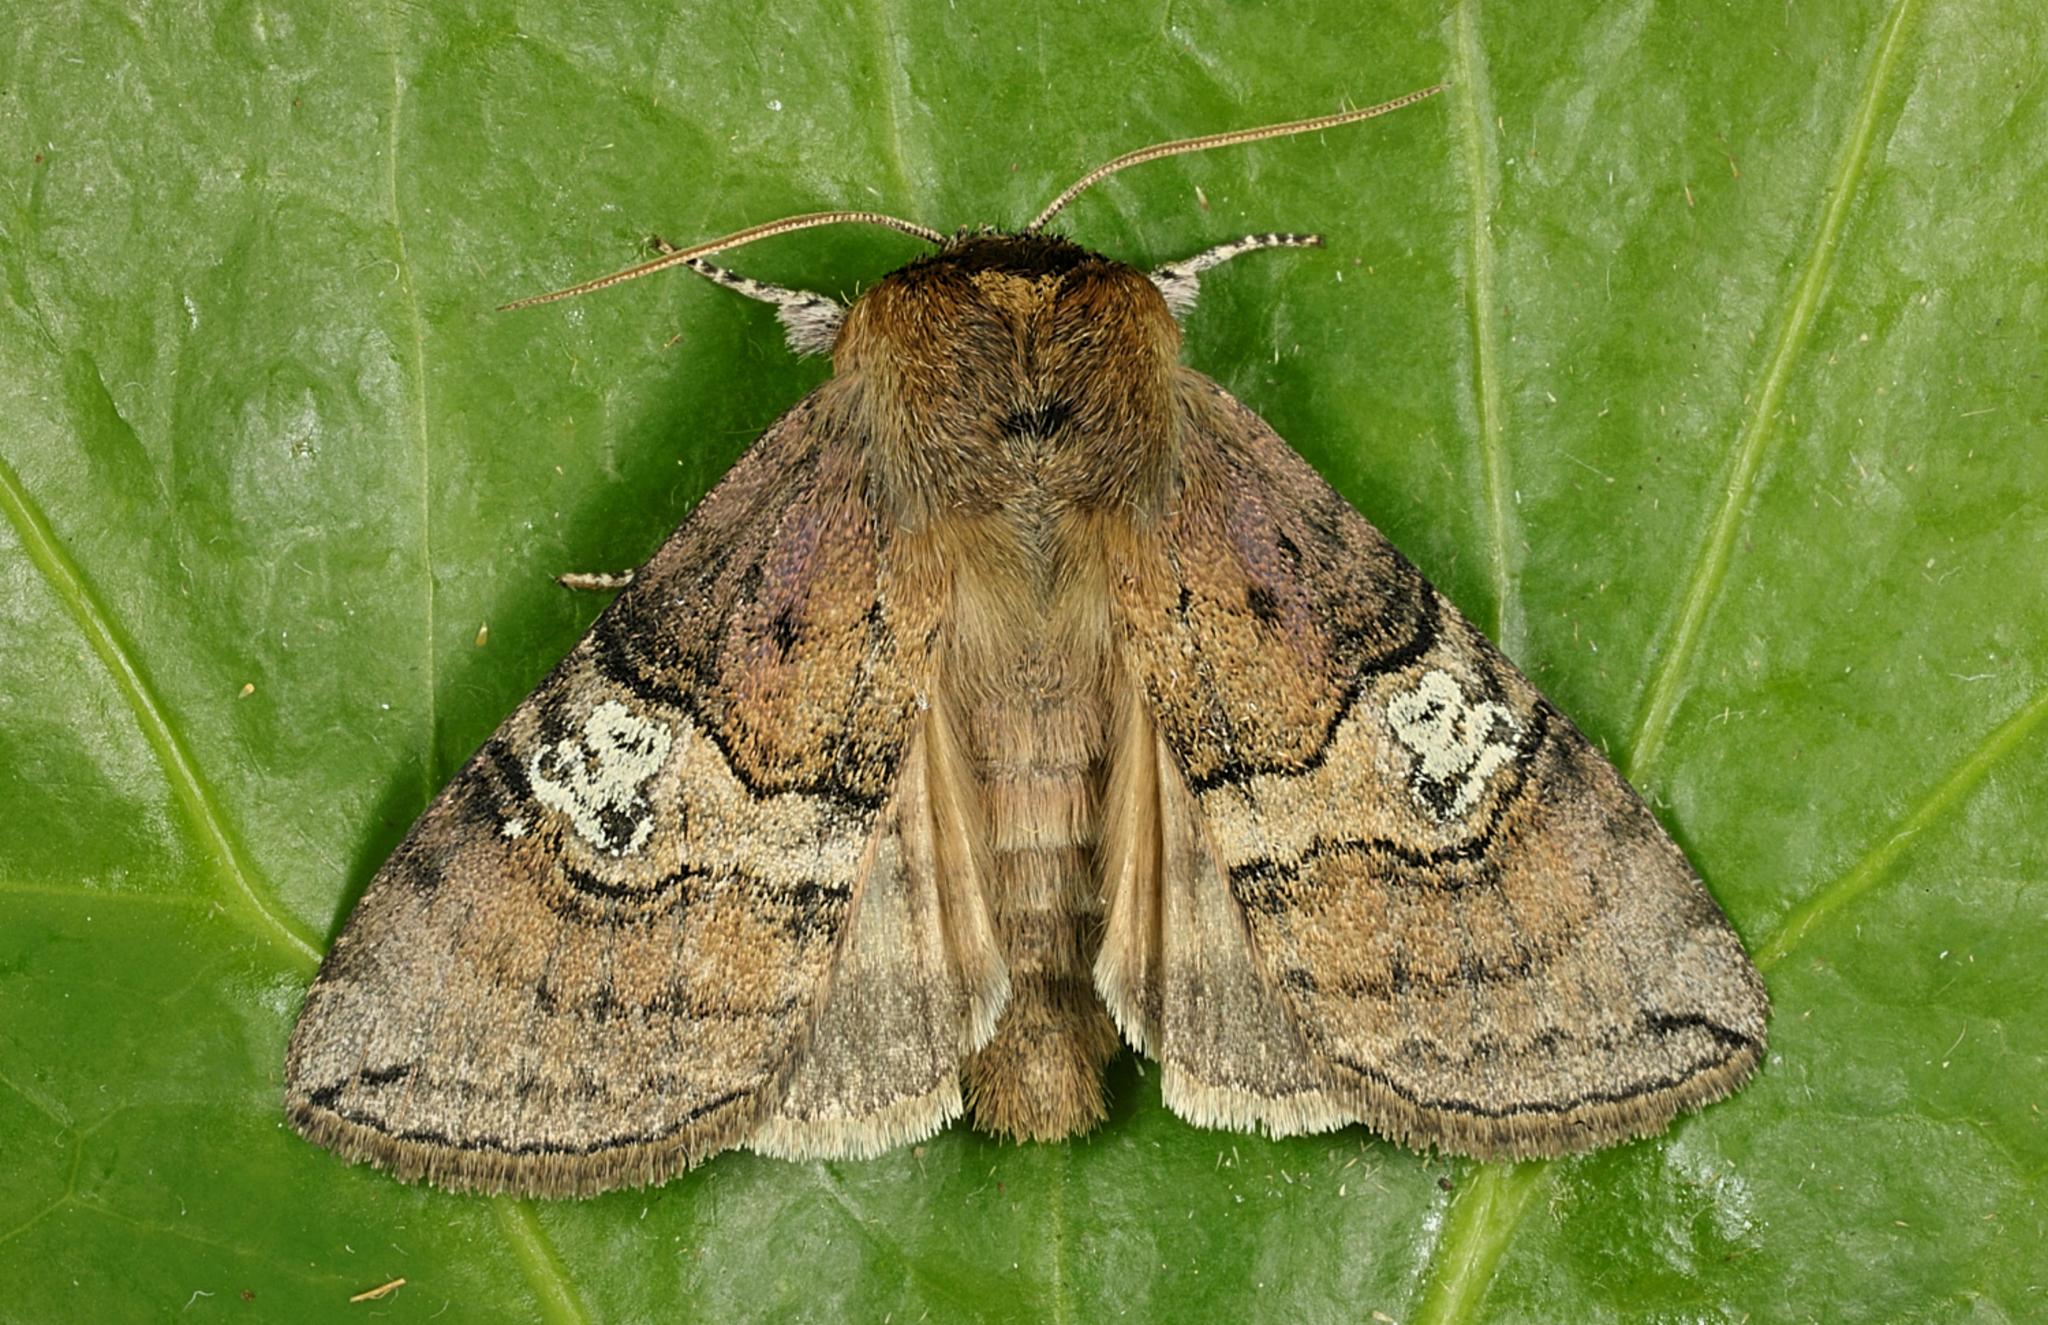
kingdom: Animalia
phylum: Arthropoda
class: Insecta
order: Lepidoptera
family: Drepanidae
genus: Tethea
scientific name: Tethea ocularis
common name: Figure of eighty
